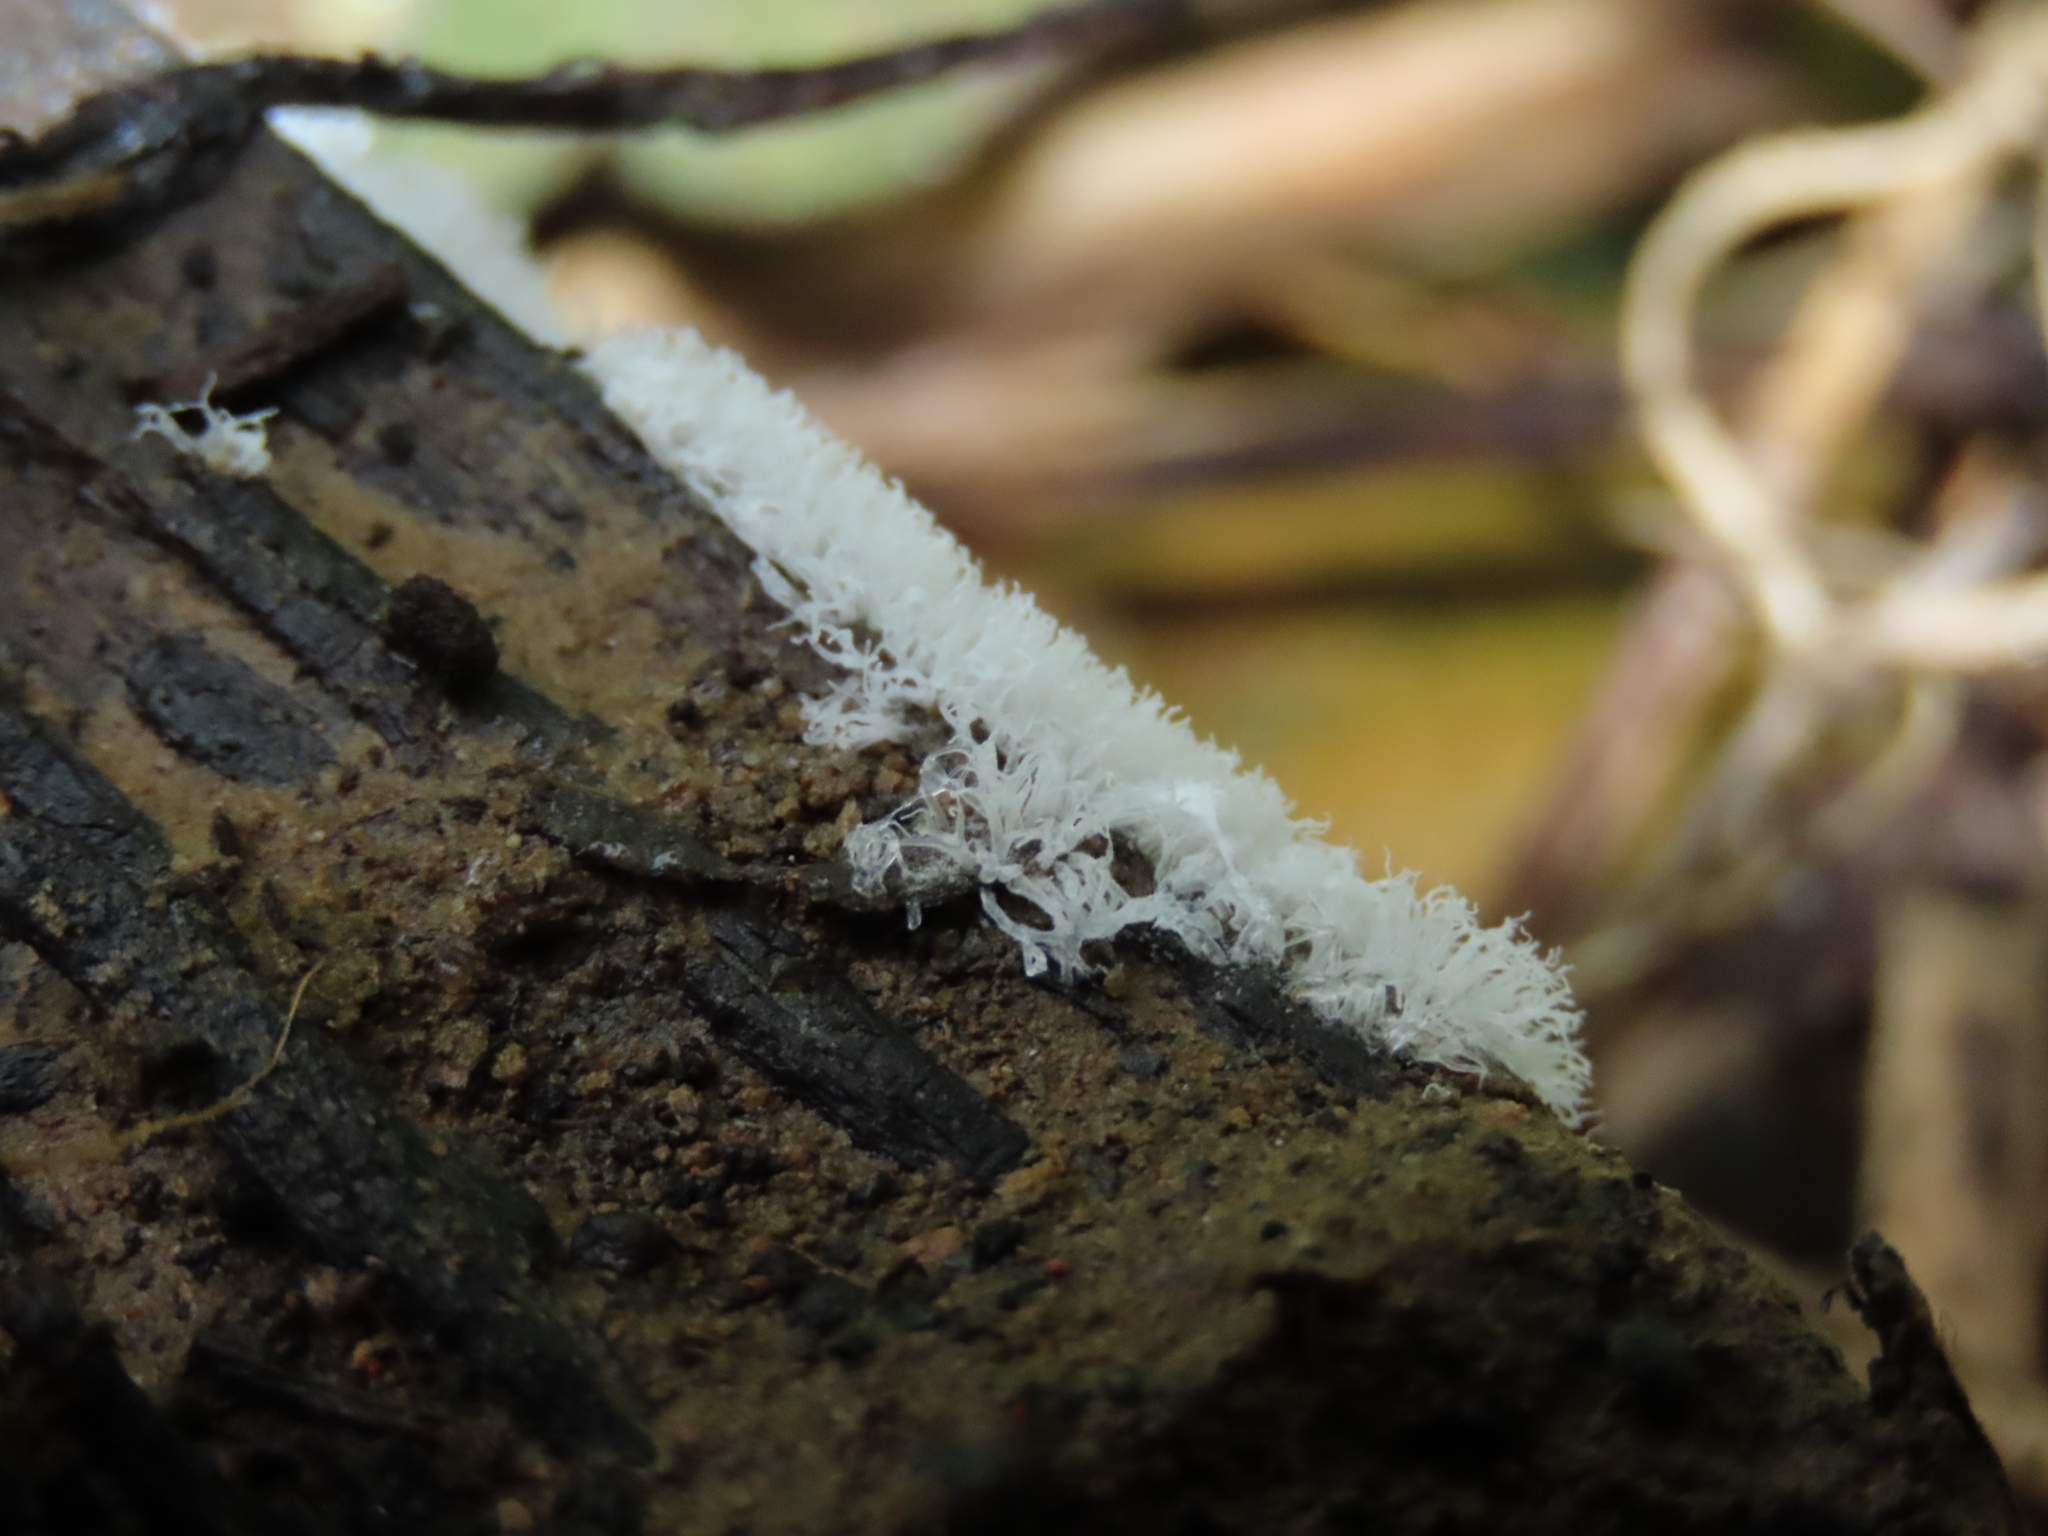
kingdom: Protozoa
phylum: Mycetozoa
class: Protosteliomycetes
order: Ceratiomyxales
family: Ceratiomyxaceae
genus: Ceratiomyxa
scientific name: Ceratiomyxa fruticulosa
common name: Honeycomb coral slime mold
